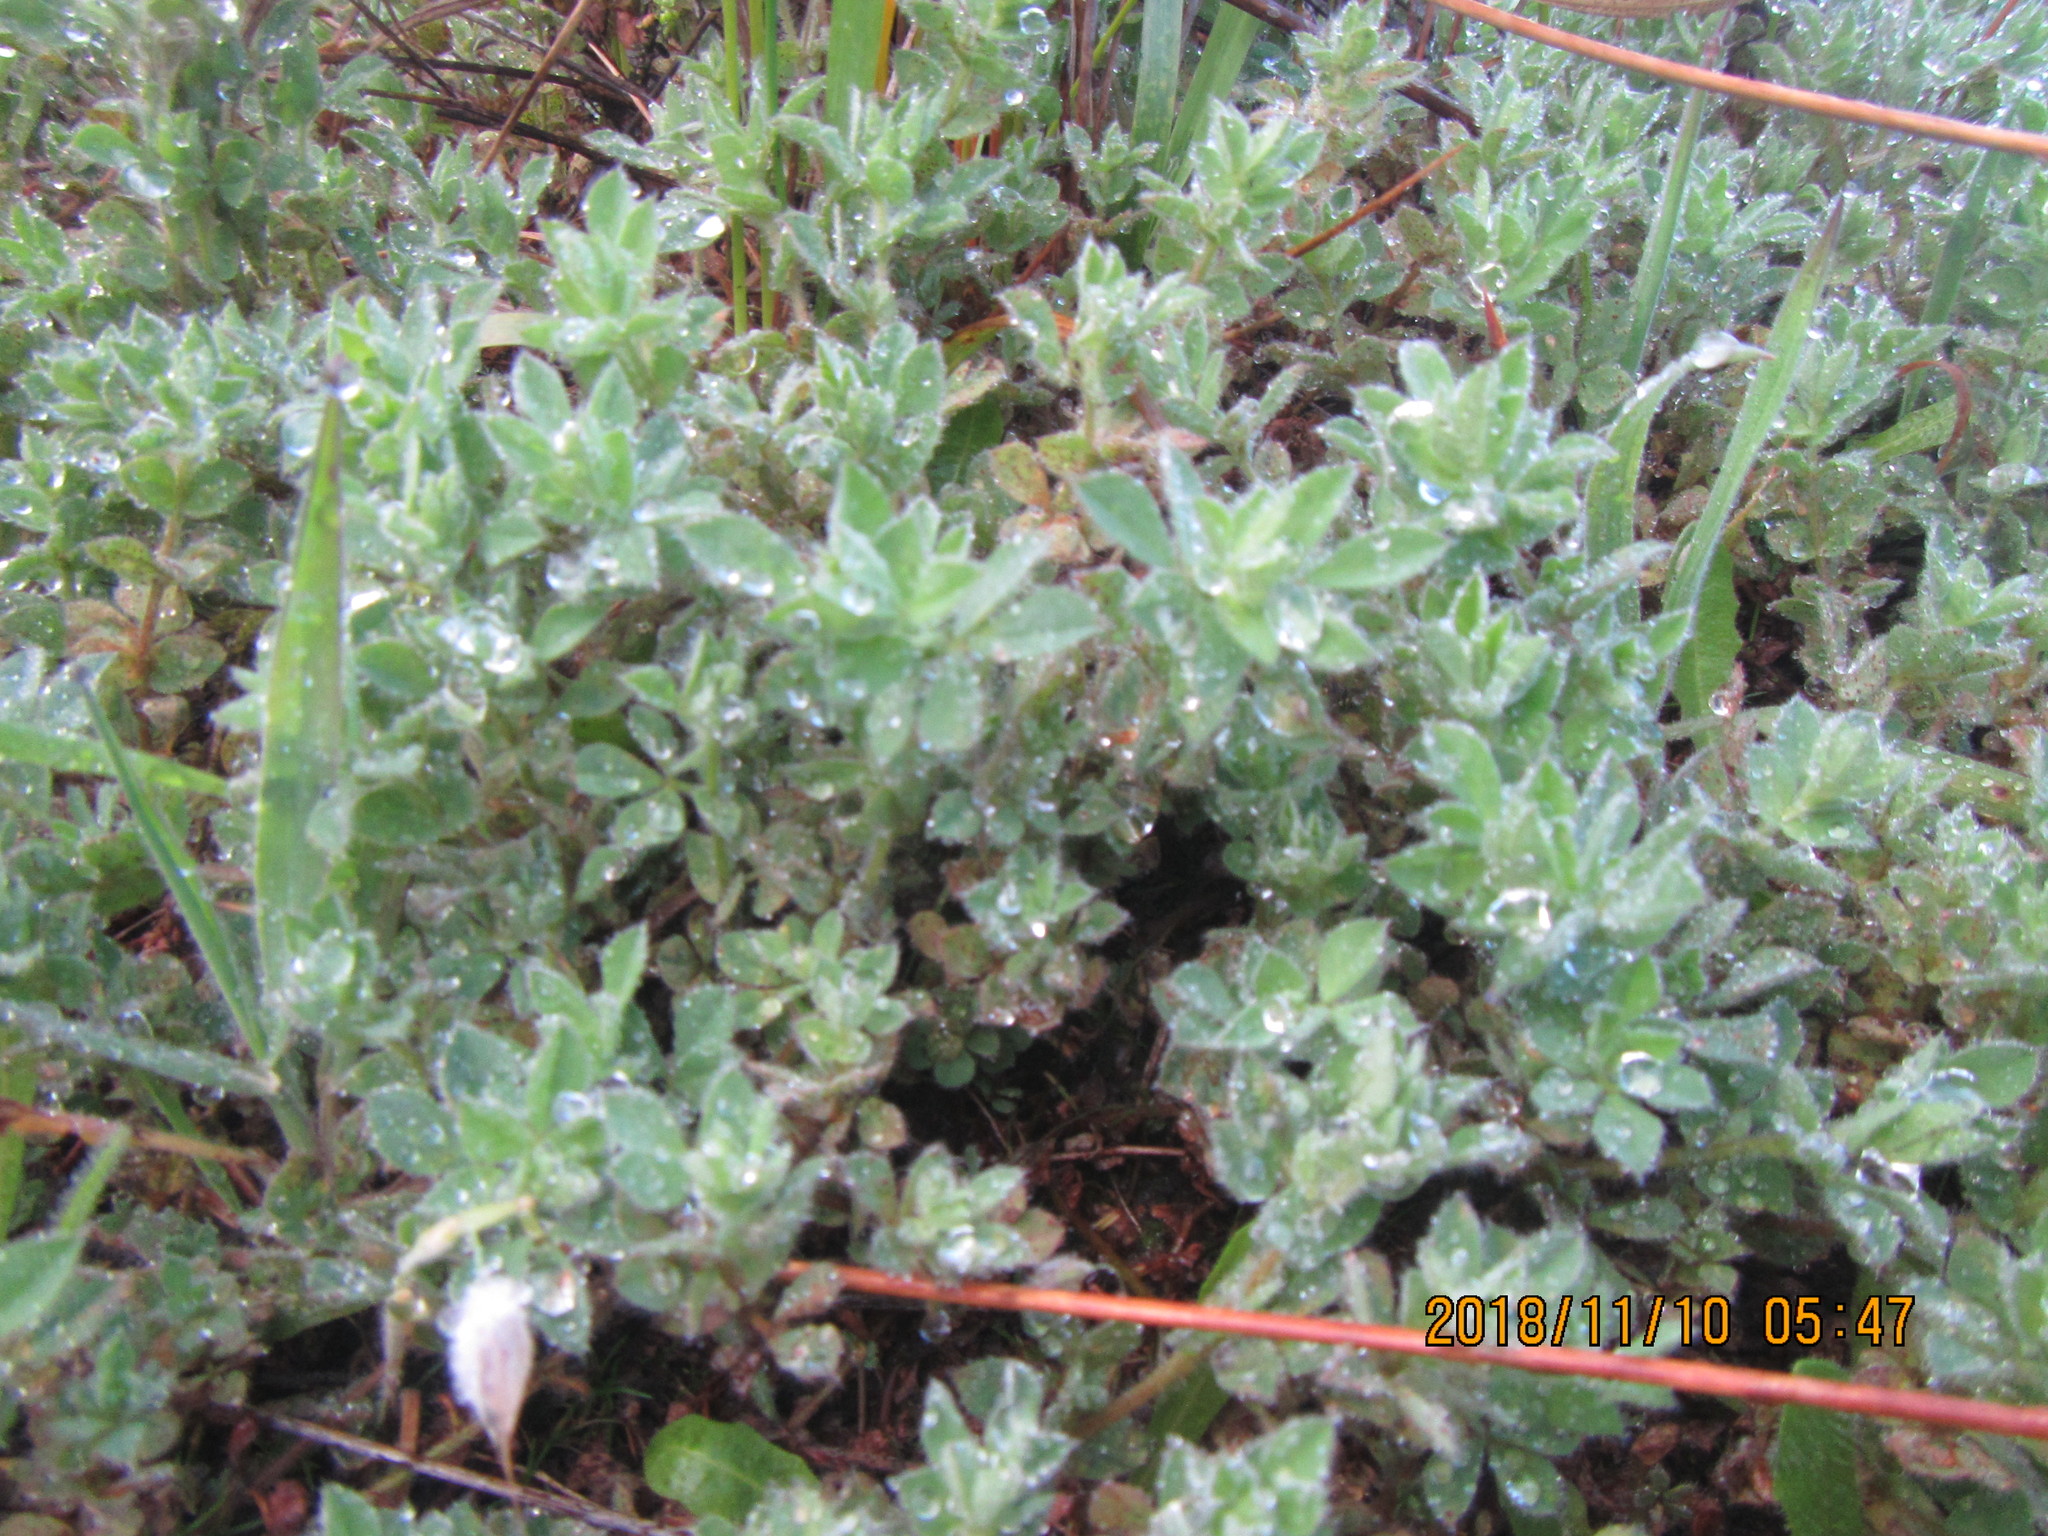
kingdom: Plantae
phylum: Tracheophyta
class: Magnoliopsida
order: Fabales
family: Fabaceae
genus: Lotus
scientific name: Lotus subbiflorus
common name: Hairy bird's-foot trefoil
